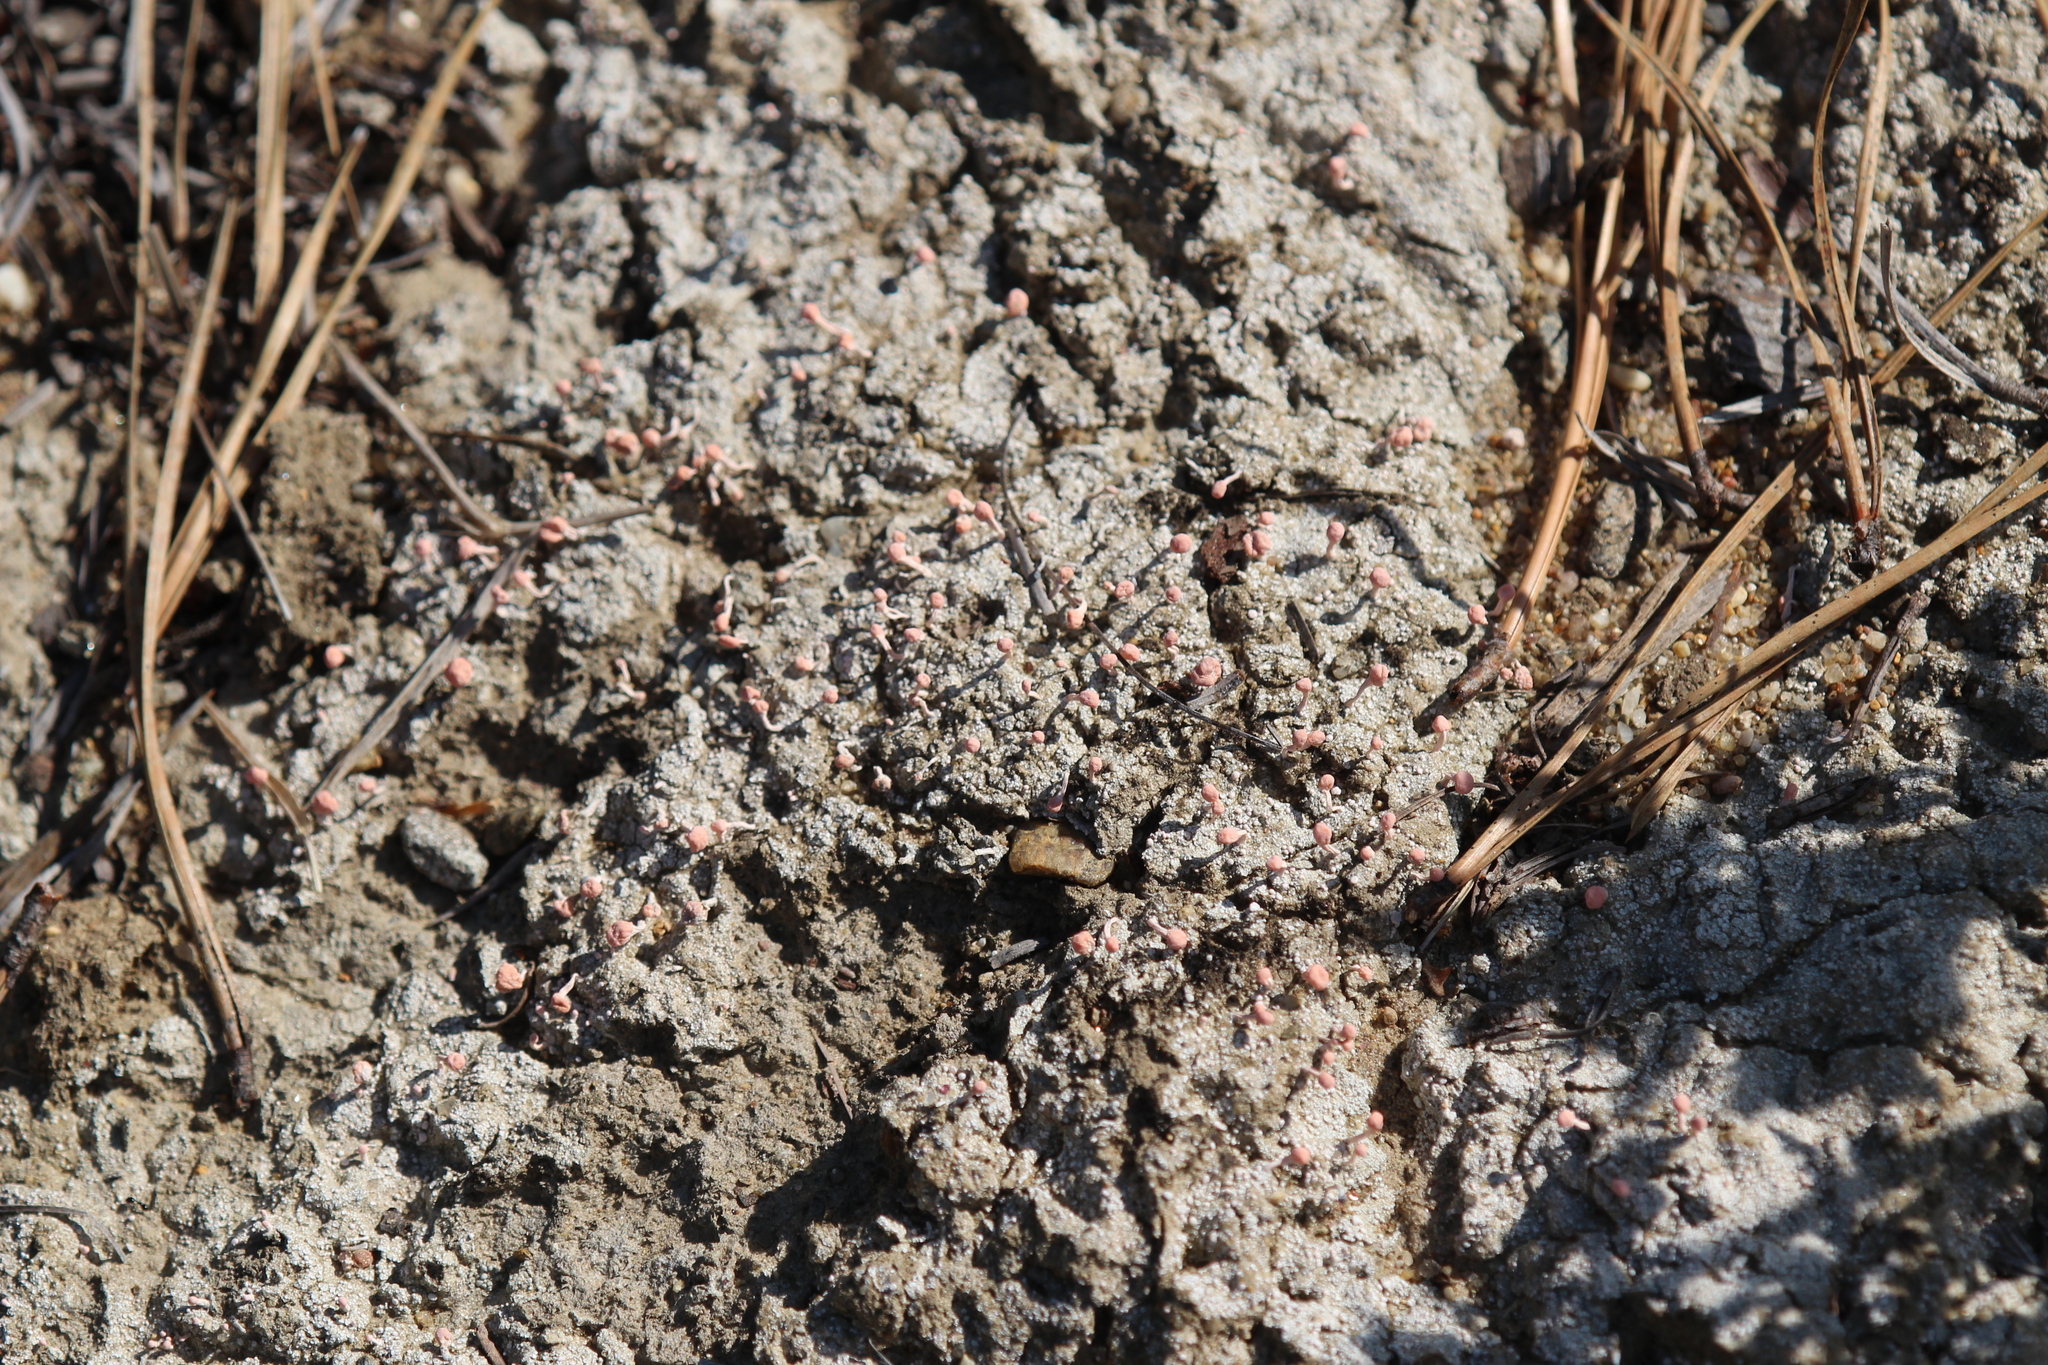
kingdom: Fungi
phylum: Ascomycota
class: Lecanoromycetes
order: Pertusariales
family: Icmadophilaceae
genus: Dibaeis
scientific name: Dibaeis baeomyces
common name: Pink earth lichen
